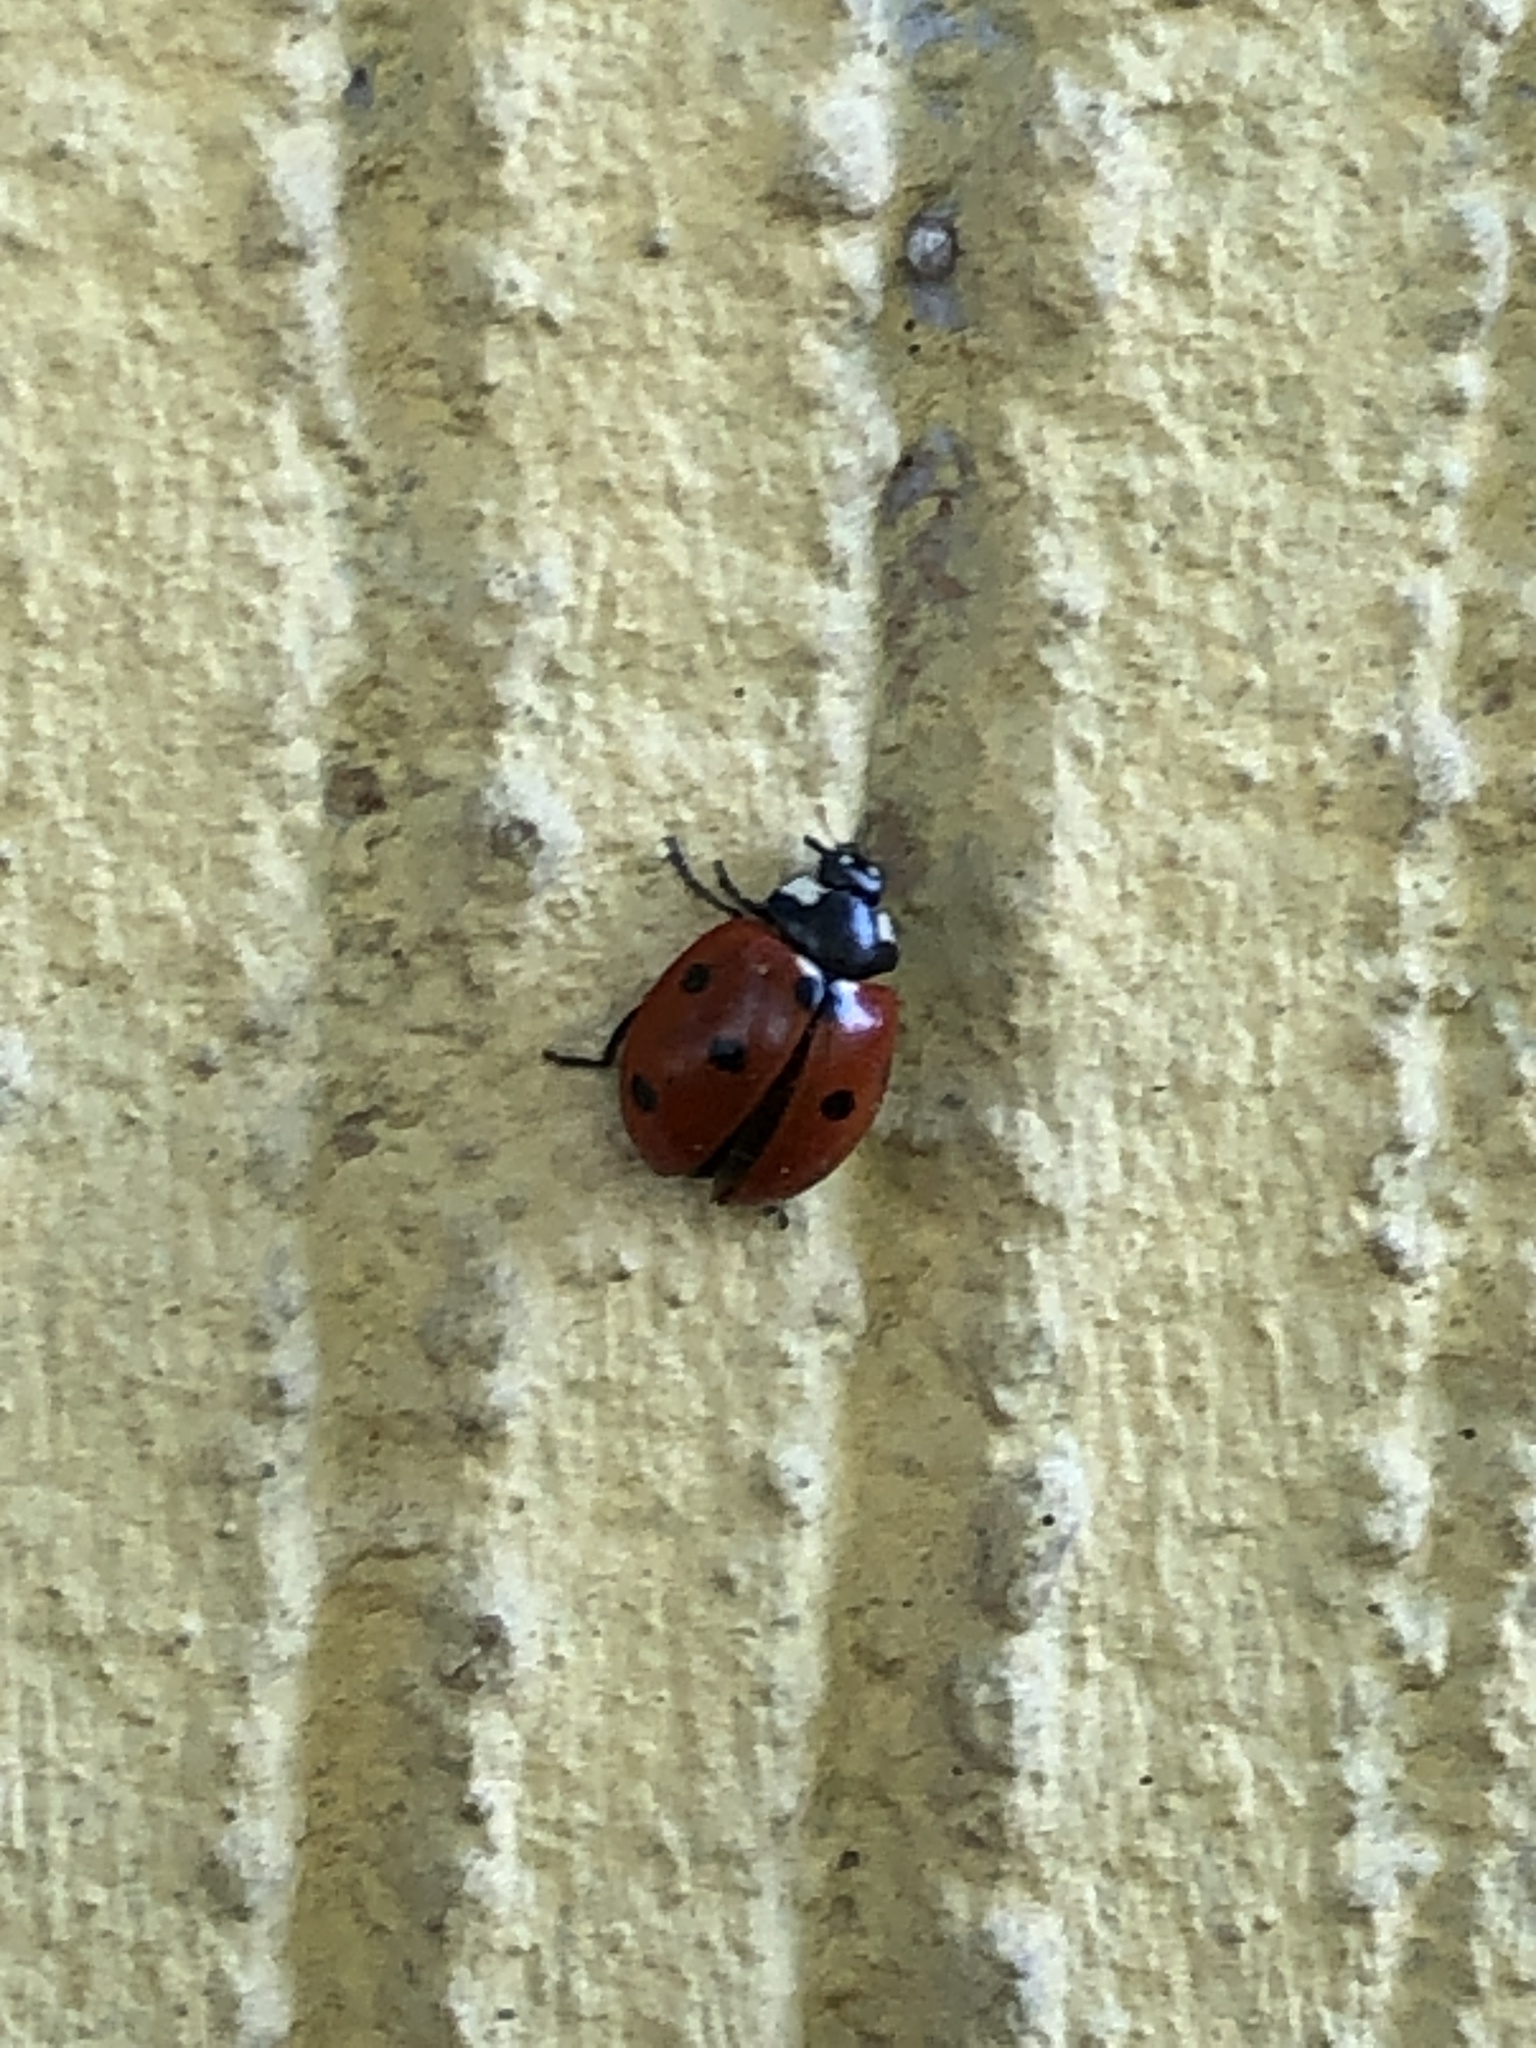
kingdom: Animalia
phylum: Arthropoda
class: Insecta
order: Coleoptera
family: Coccinellidae
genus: Coccinella
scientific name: Coccinella septempunctata
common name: Sevenspotted lady beetle
